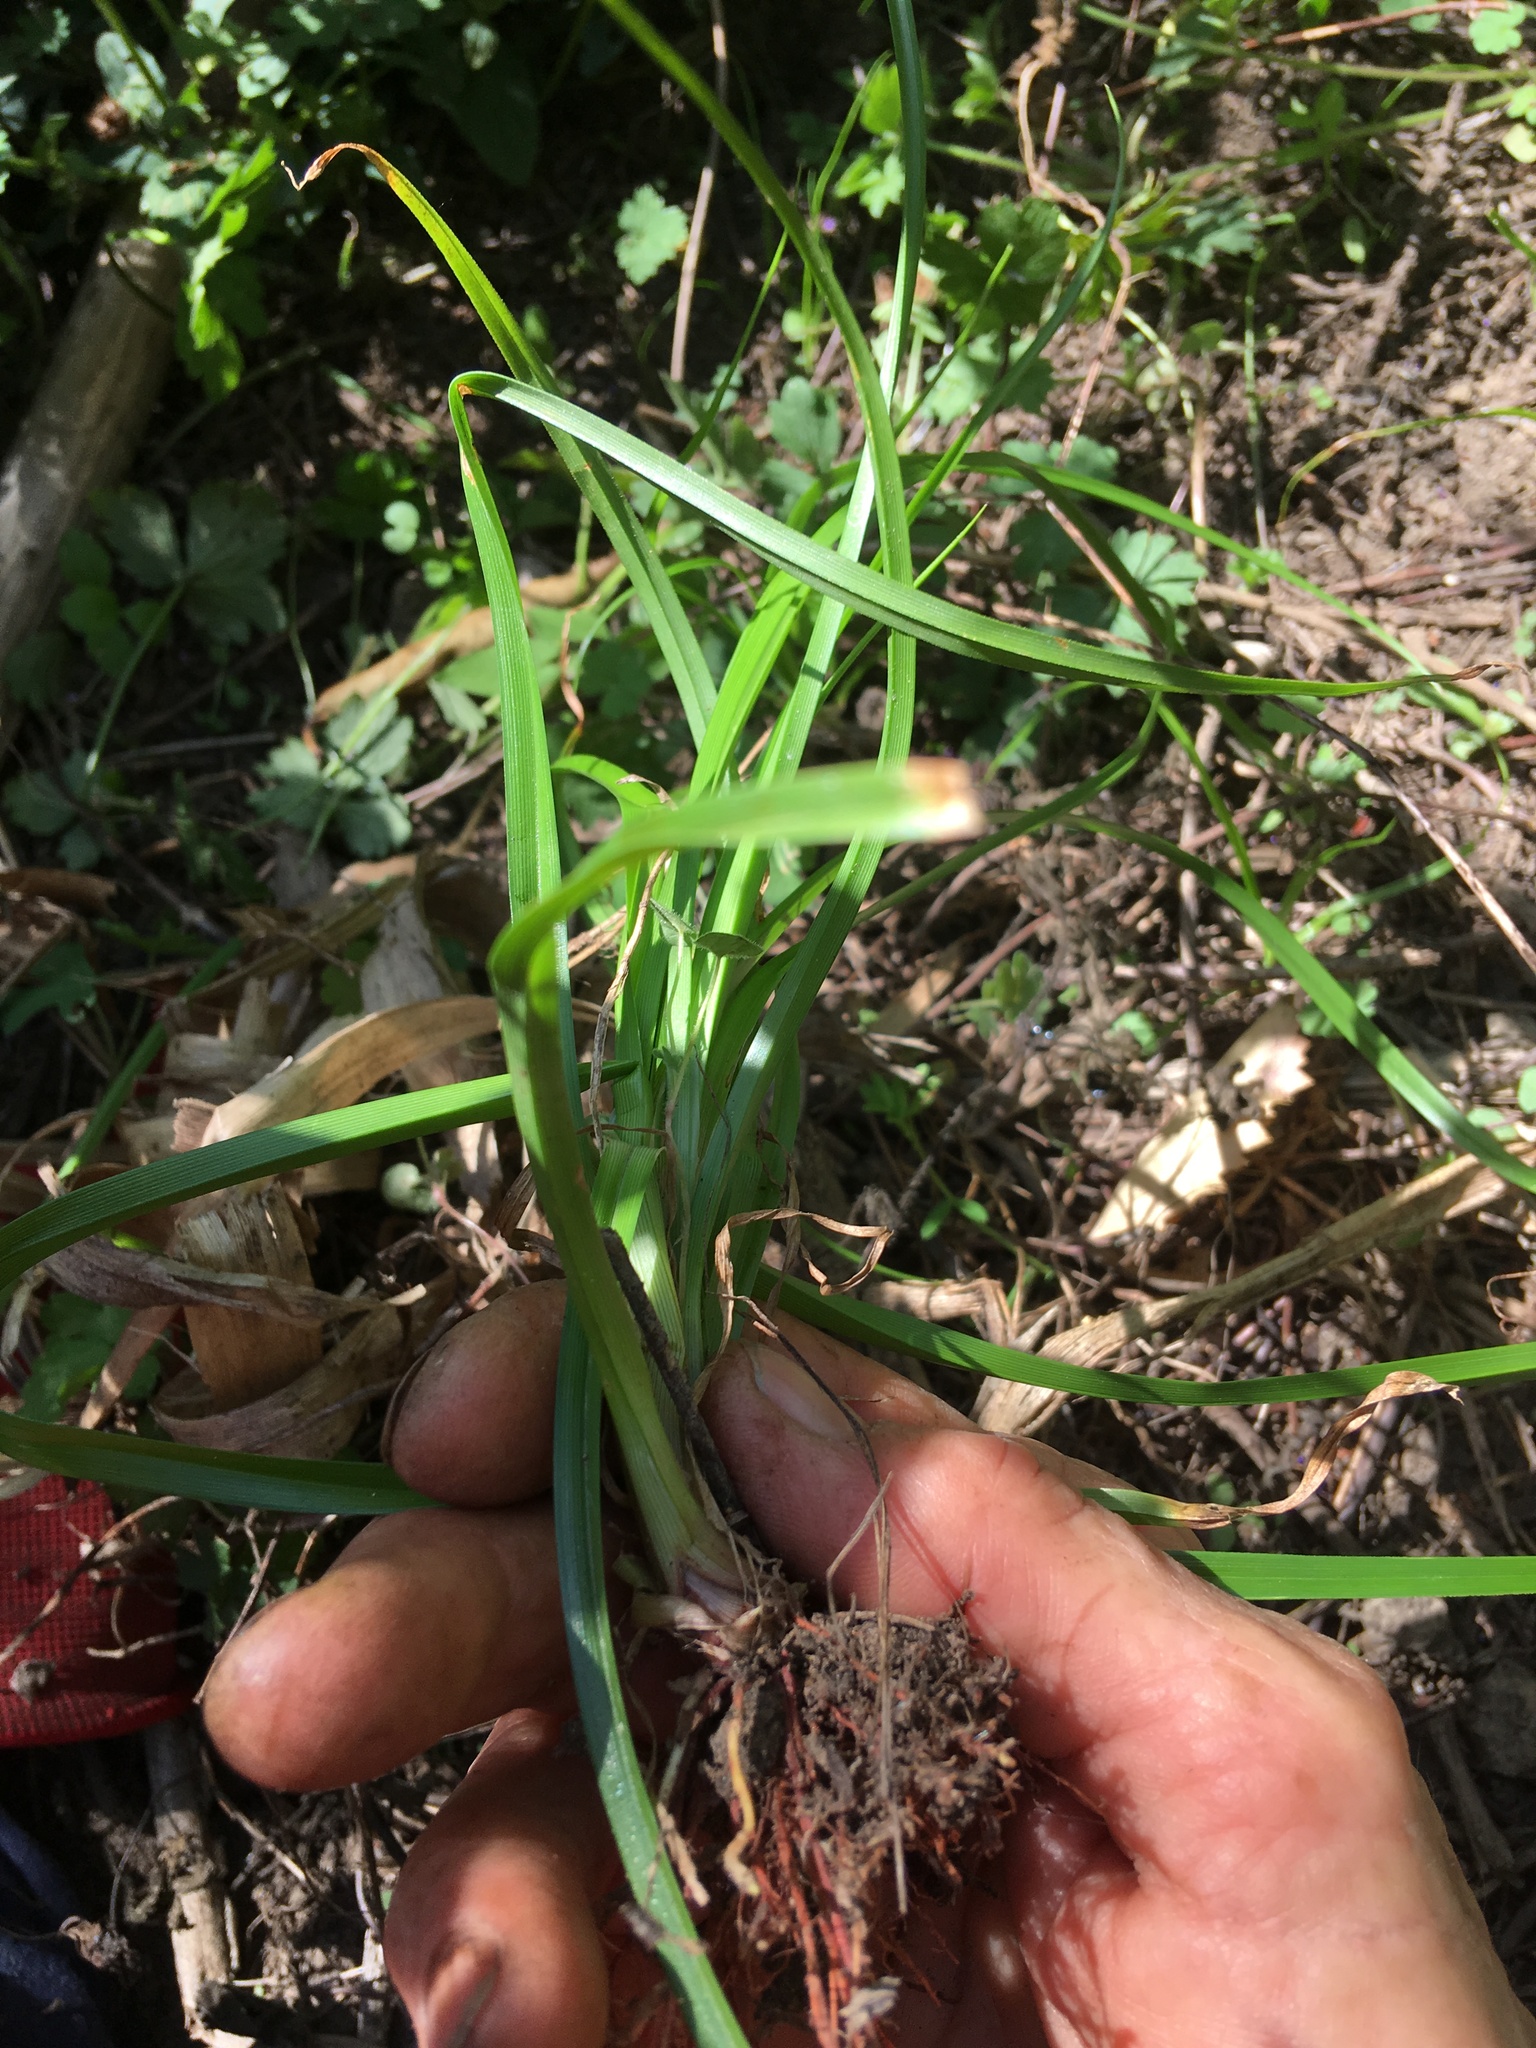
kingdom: Plantae
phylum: Tracheophyta
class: Liliopsida
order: Poales
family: Cyperaceae
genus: Cyperus
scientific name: Cyperus eragrostis
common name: Tall flatsedge
